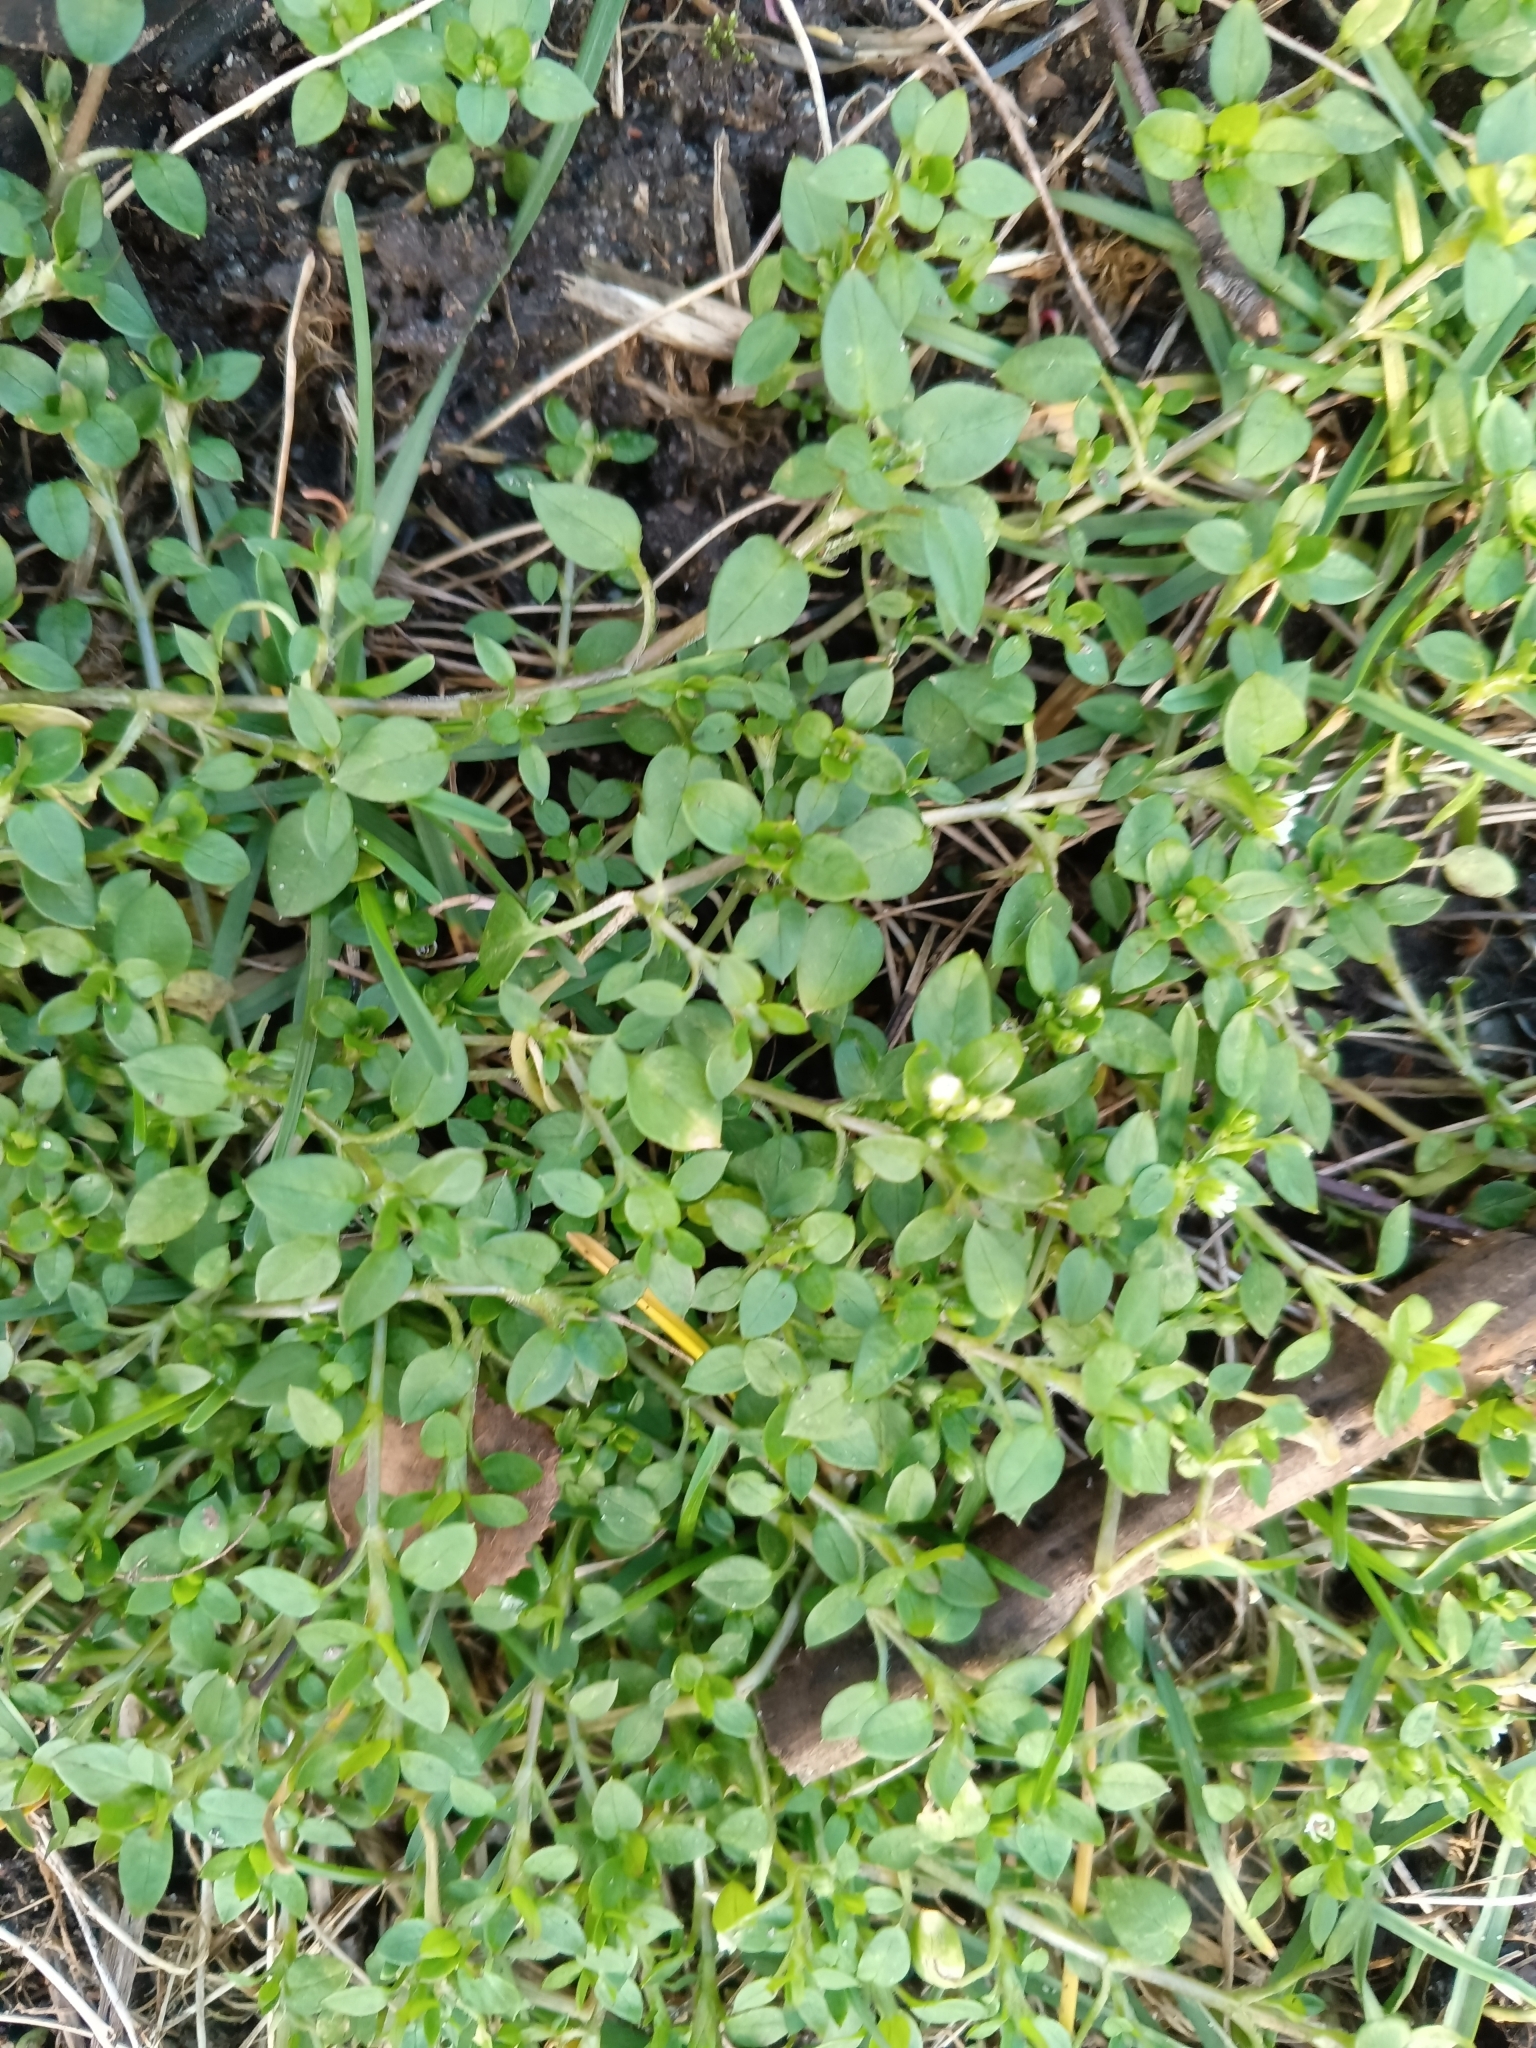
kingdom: Plantae
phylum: Tracheophyta
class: Magnoliopsida
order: Caryophyllales
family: Caryophyllaceae
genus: Stellaria
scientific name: Stellaria media
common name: Common chickweed
